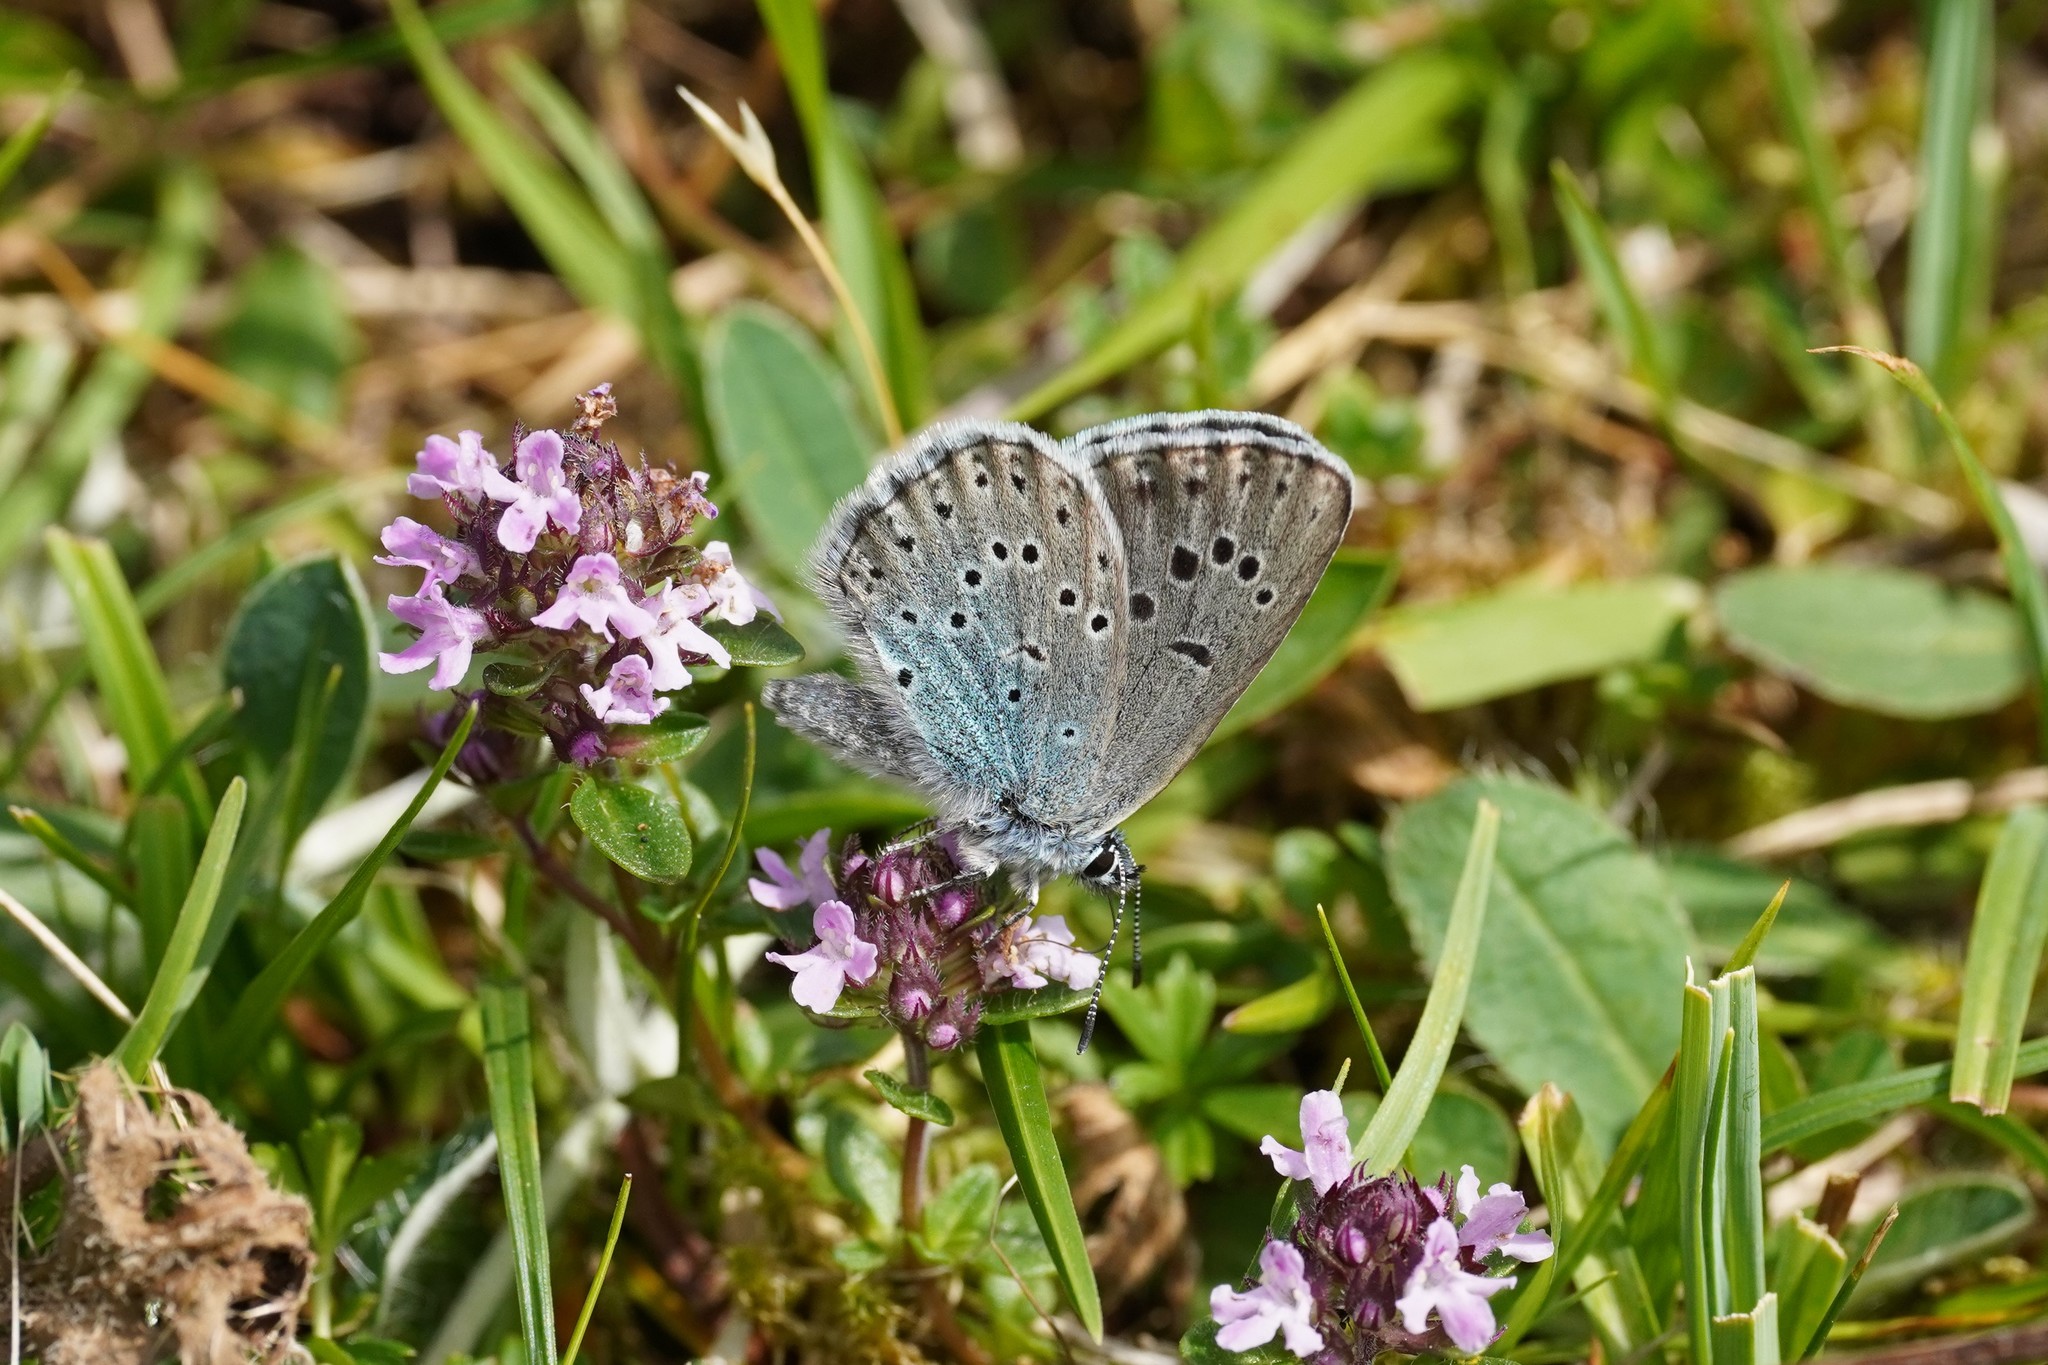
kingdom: Animalia
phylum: Arthropoda
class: Insecta
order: Lepidoptera
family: Lycaenidae
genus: Maculinea
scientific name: Maculinea arion
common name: Large blue
